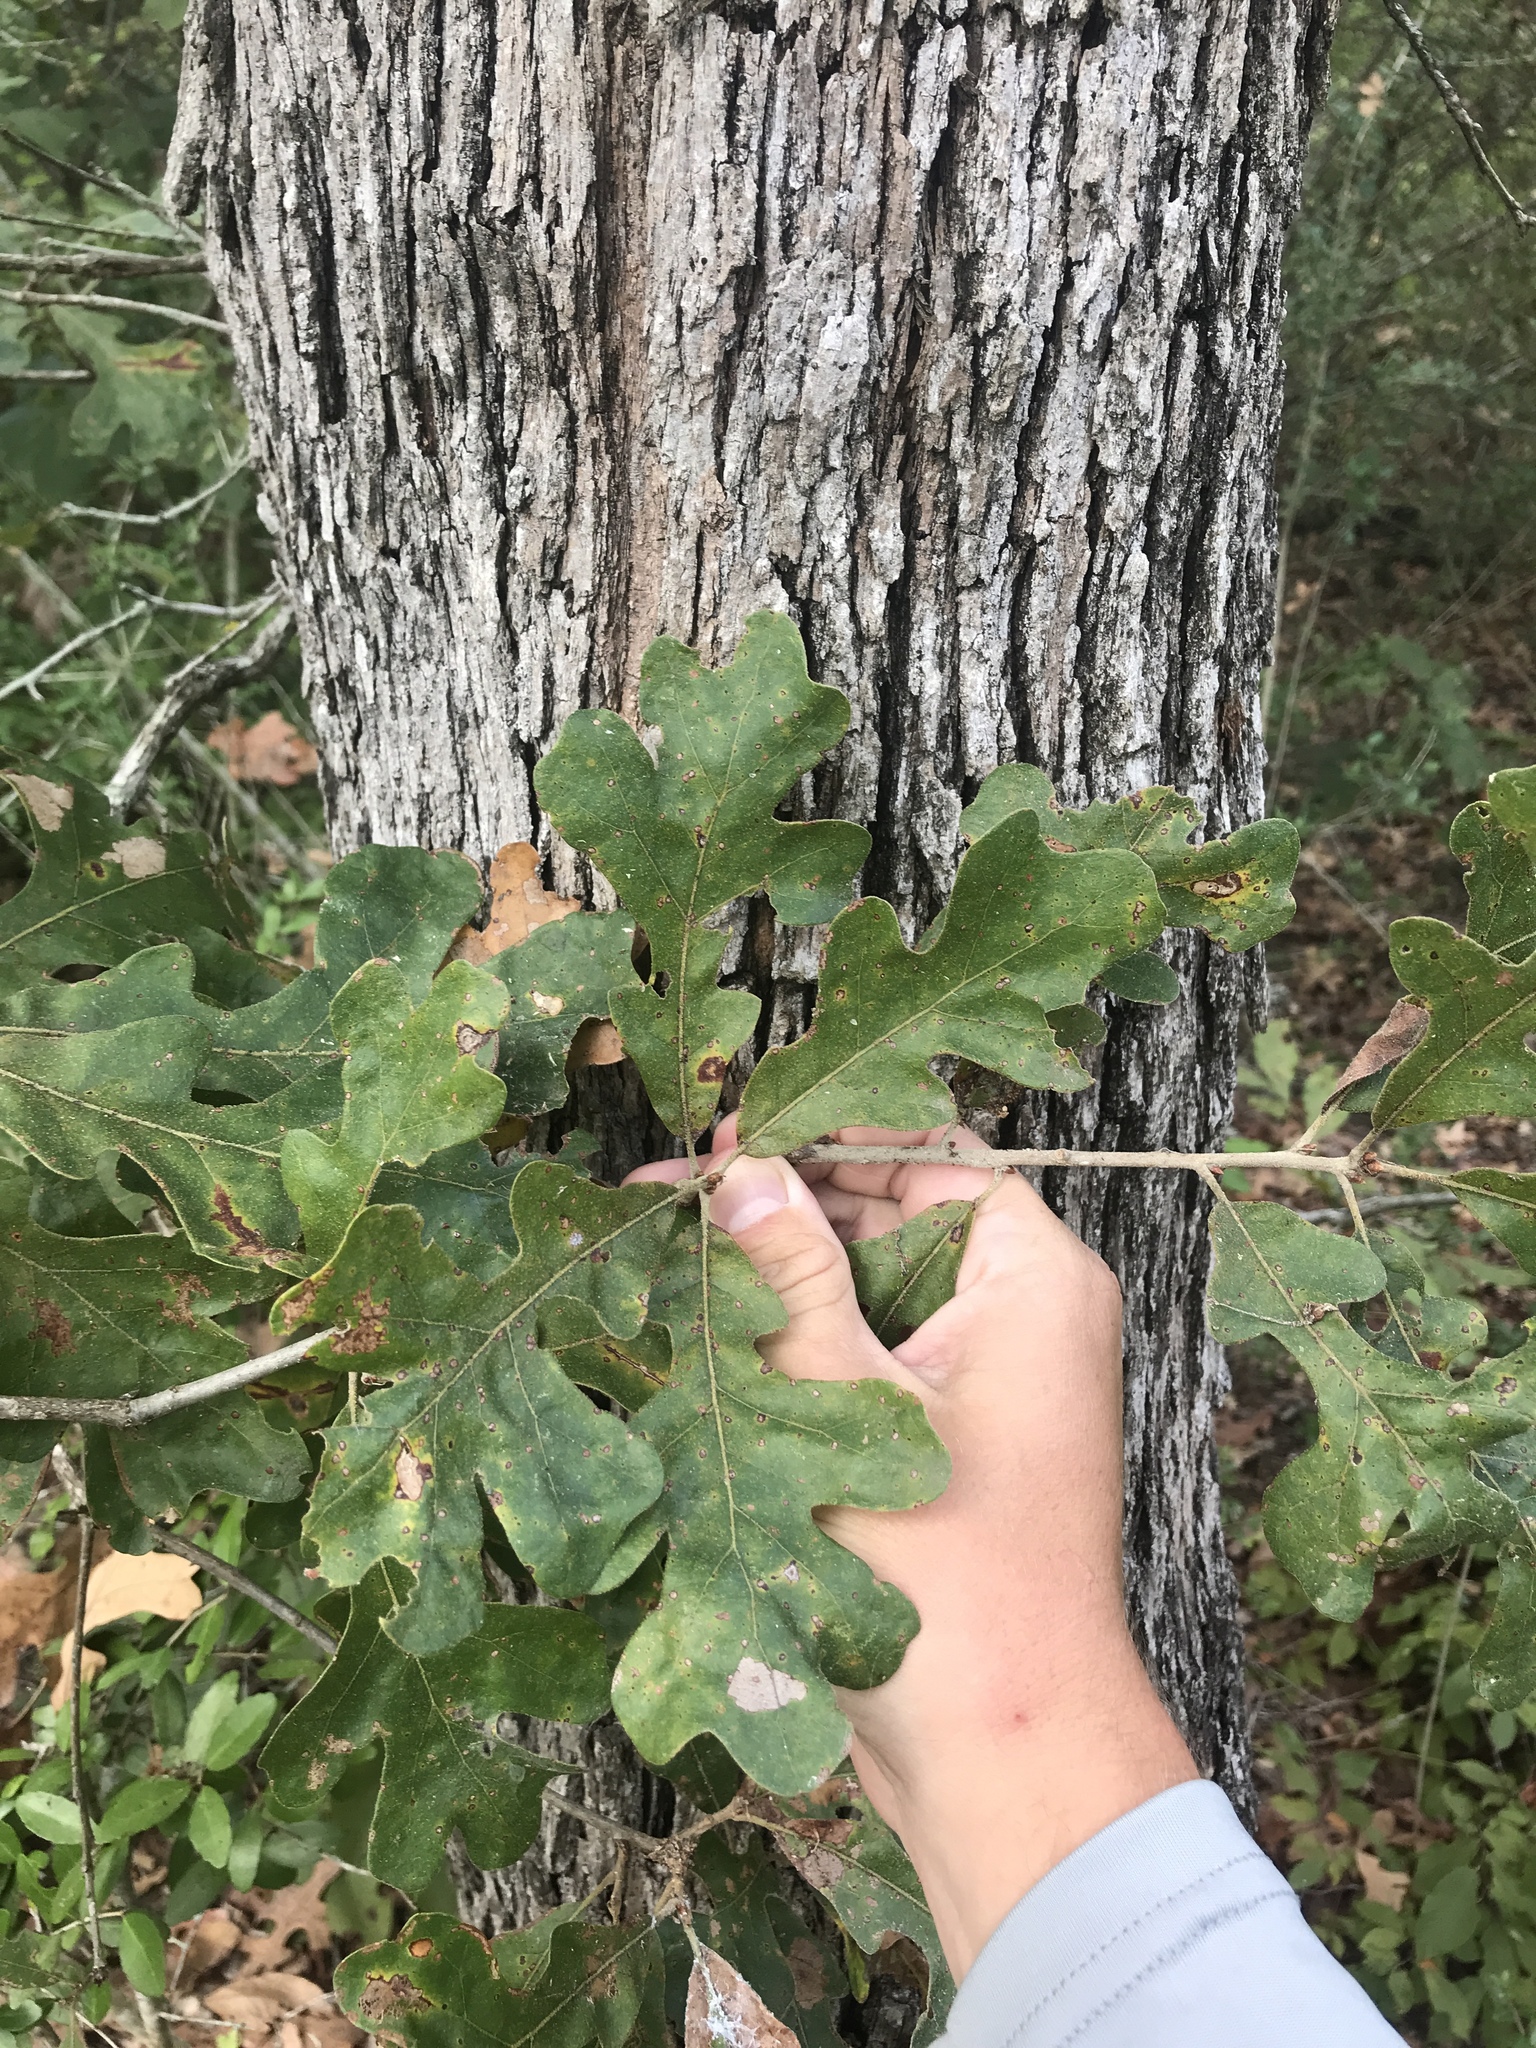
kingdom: Plantae
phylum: Tracheophyta
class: Magnoliopsida
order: Fagales
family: Fagaceae
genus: Quercus
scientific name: Quercus stellata
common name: Post oak
